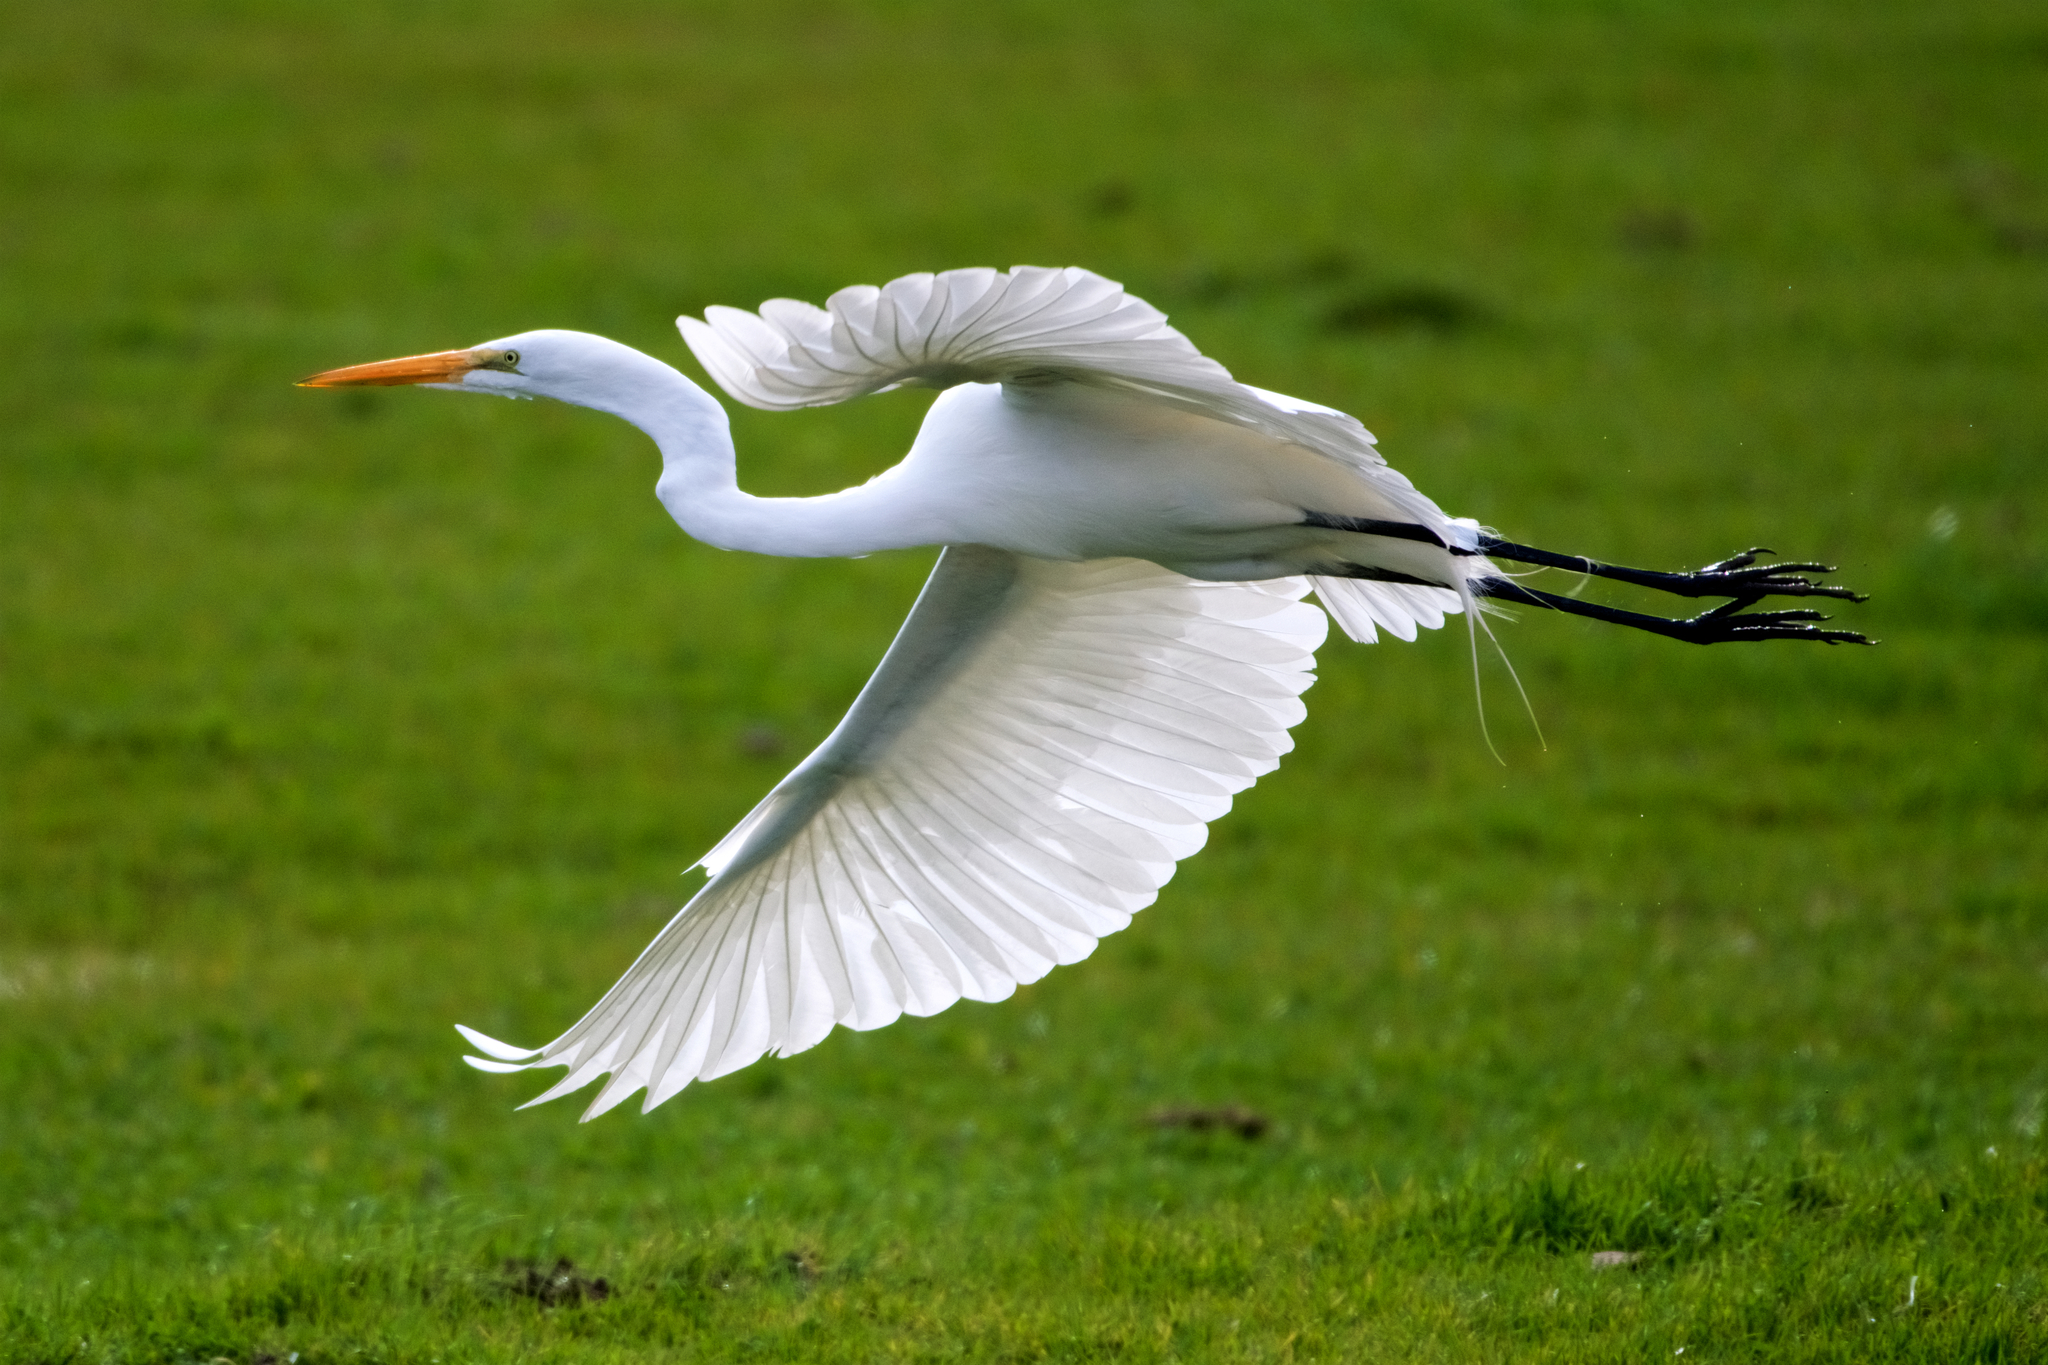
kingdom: Animalia
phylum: Chordata
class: Aves
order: Pelecaniformes
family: Ardeidae
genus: Ardea
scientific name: Ardea alba
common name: Great egret
